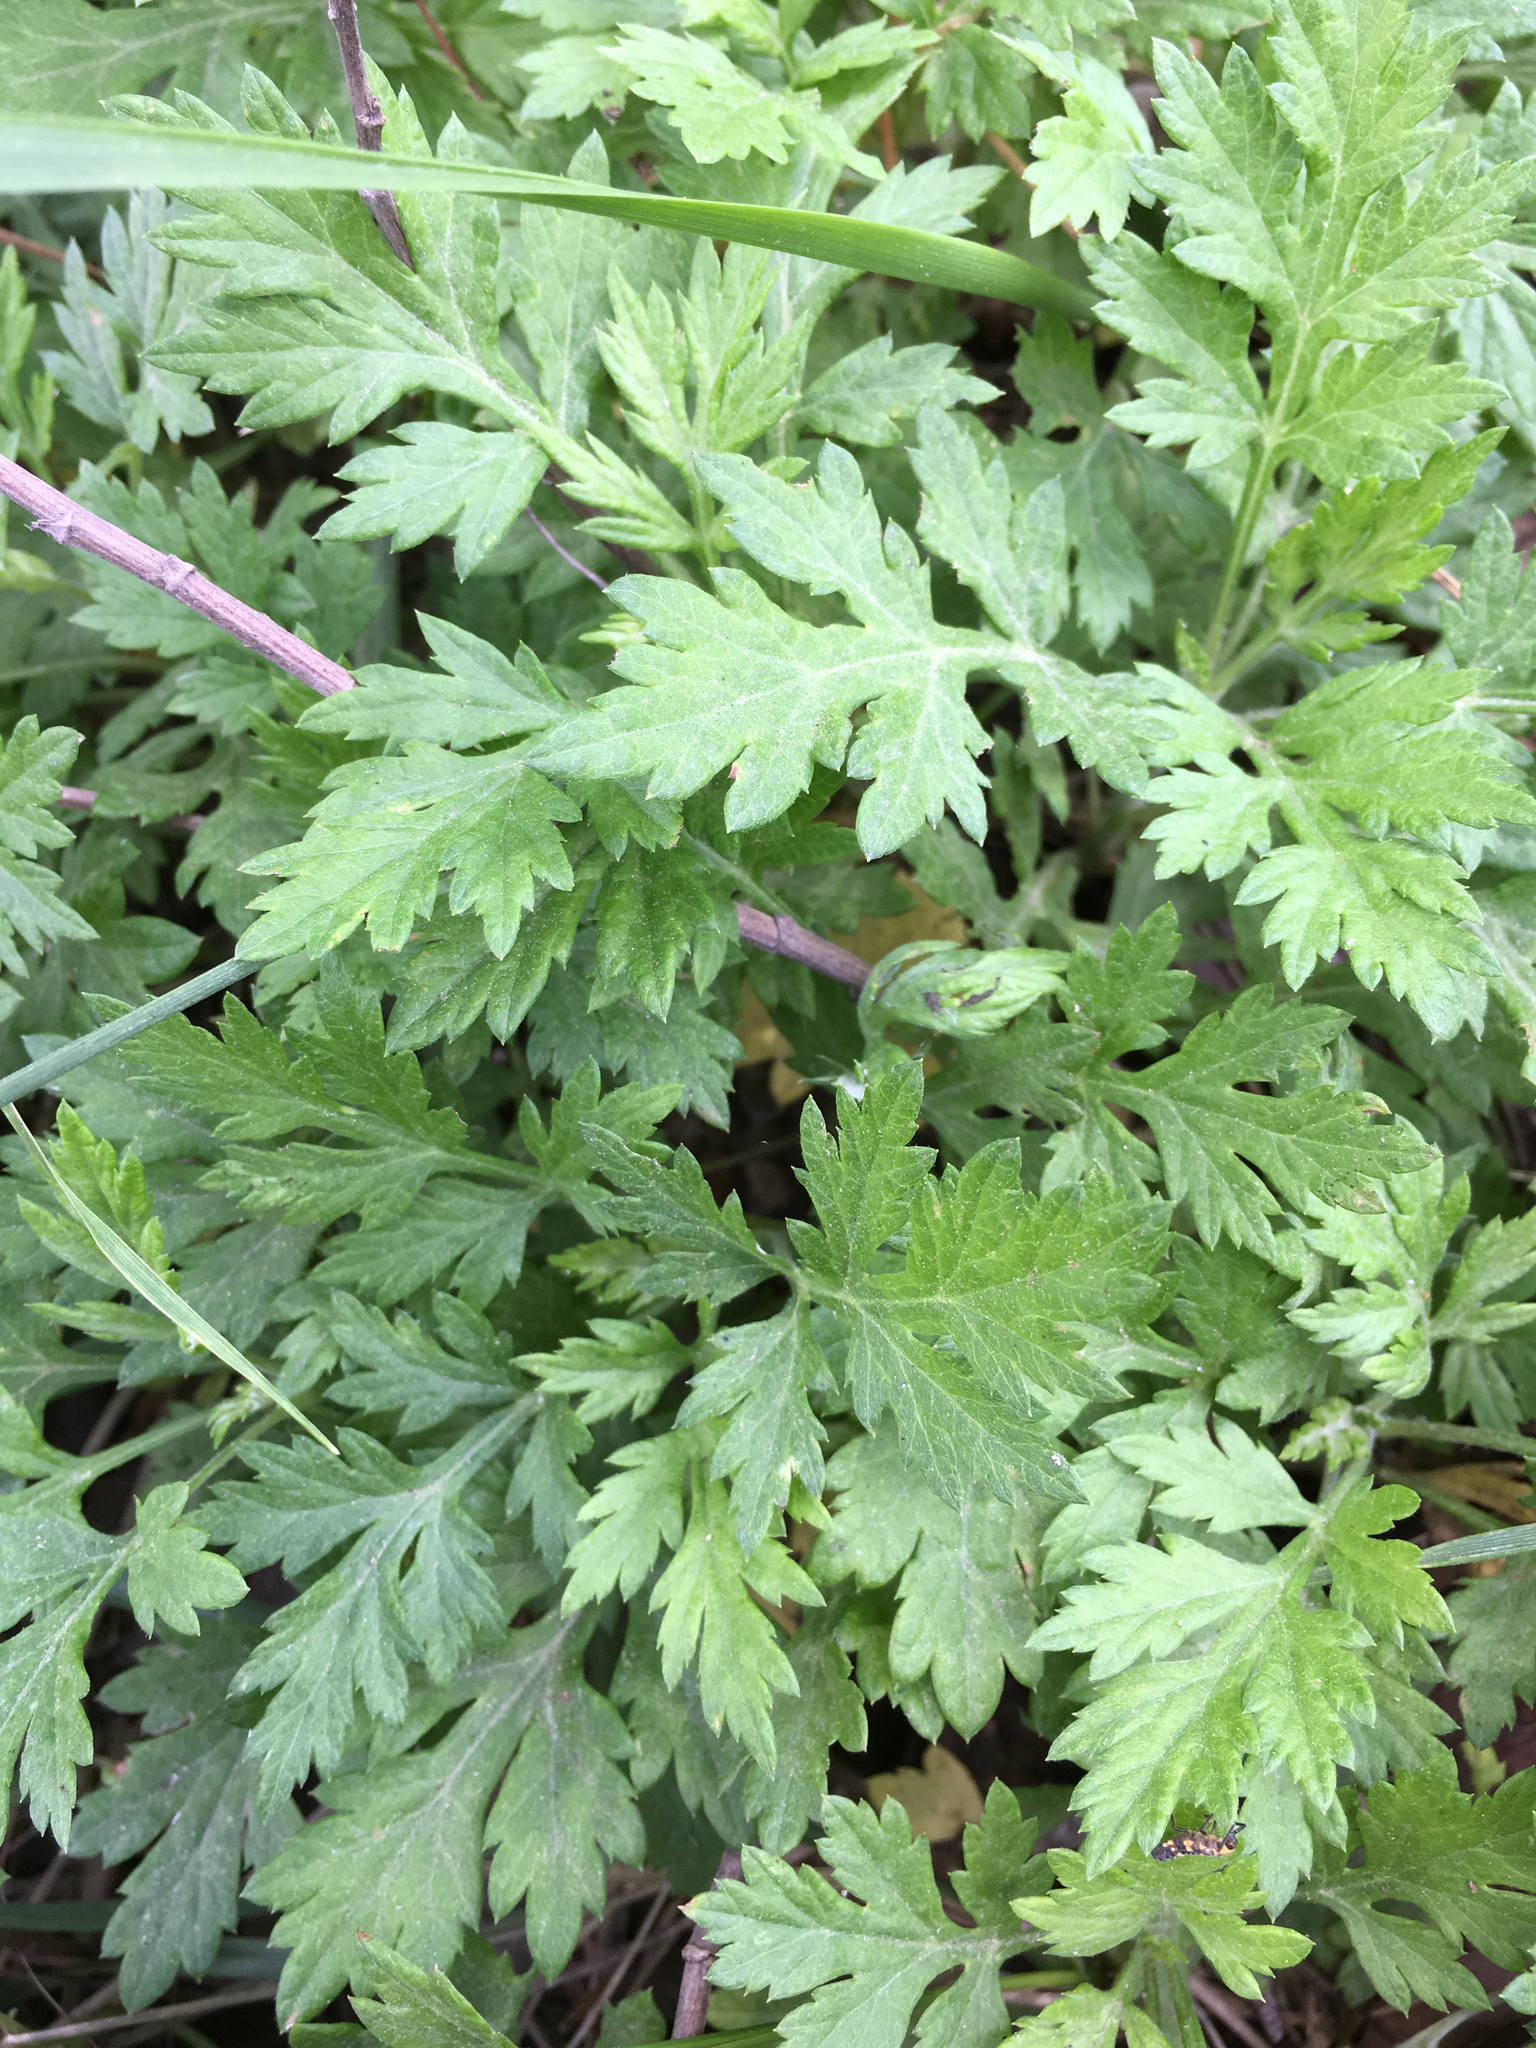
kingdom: Plantae
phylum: Tracheophyta
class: Magnoliopsida
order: Asterales
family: Asteraceae
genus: Artemisia
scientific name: Artemisia vulgaris
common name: Mugwort
